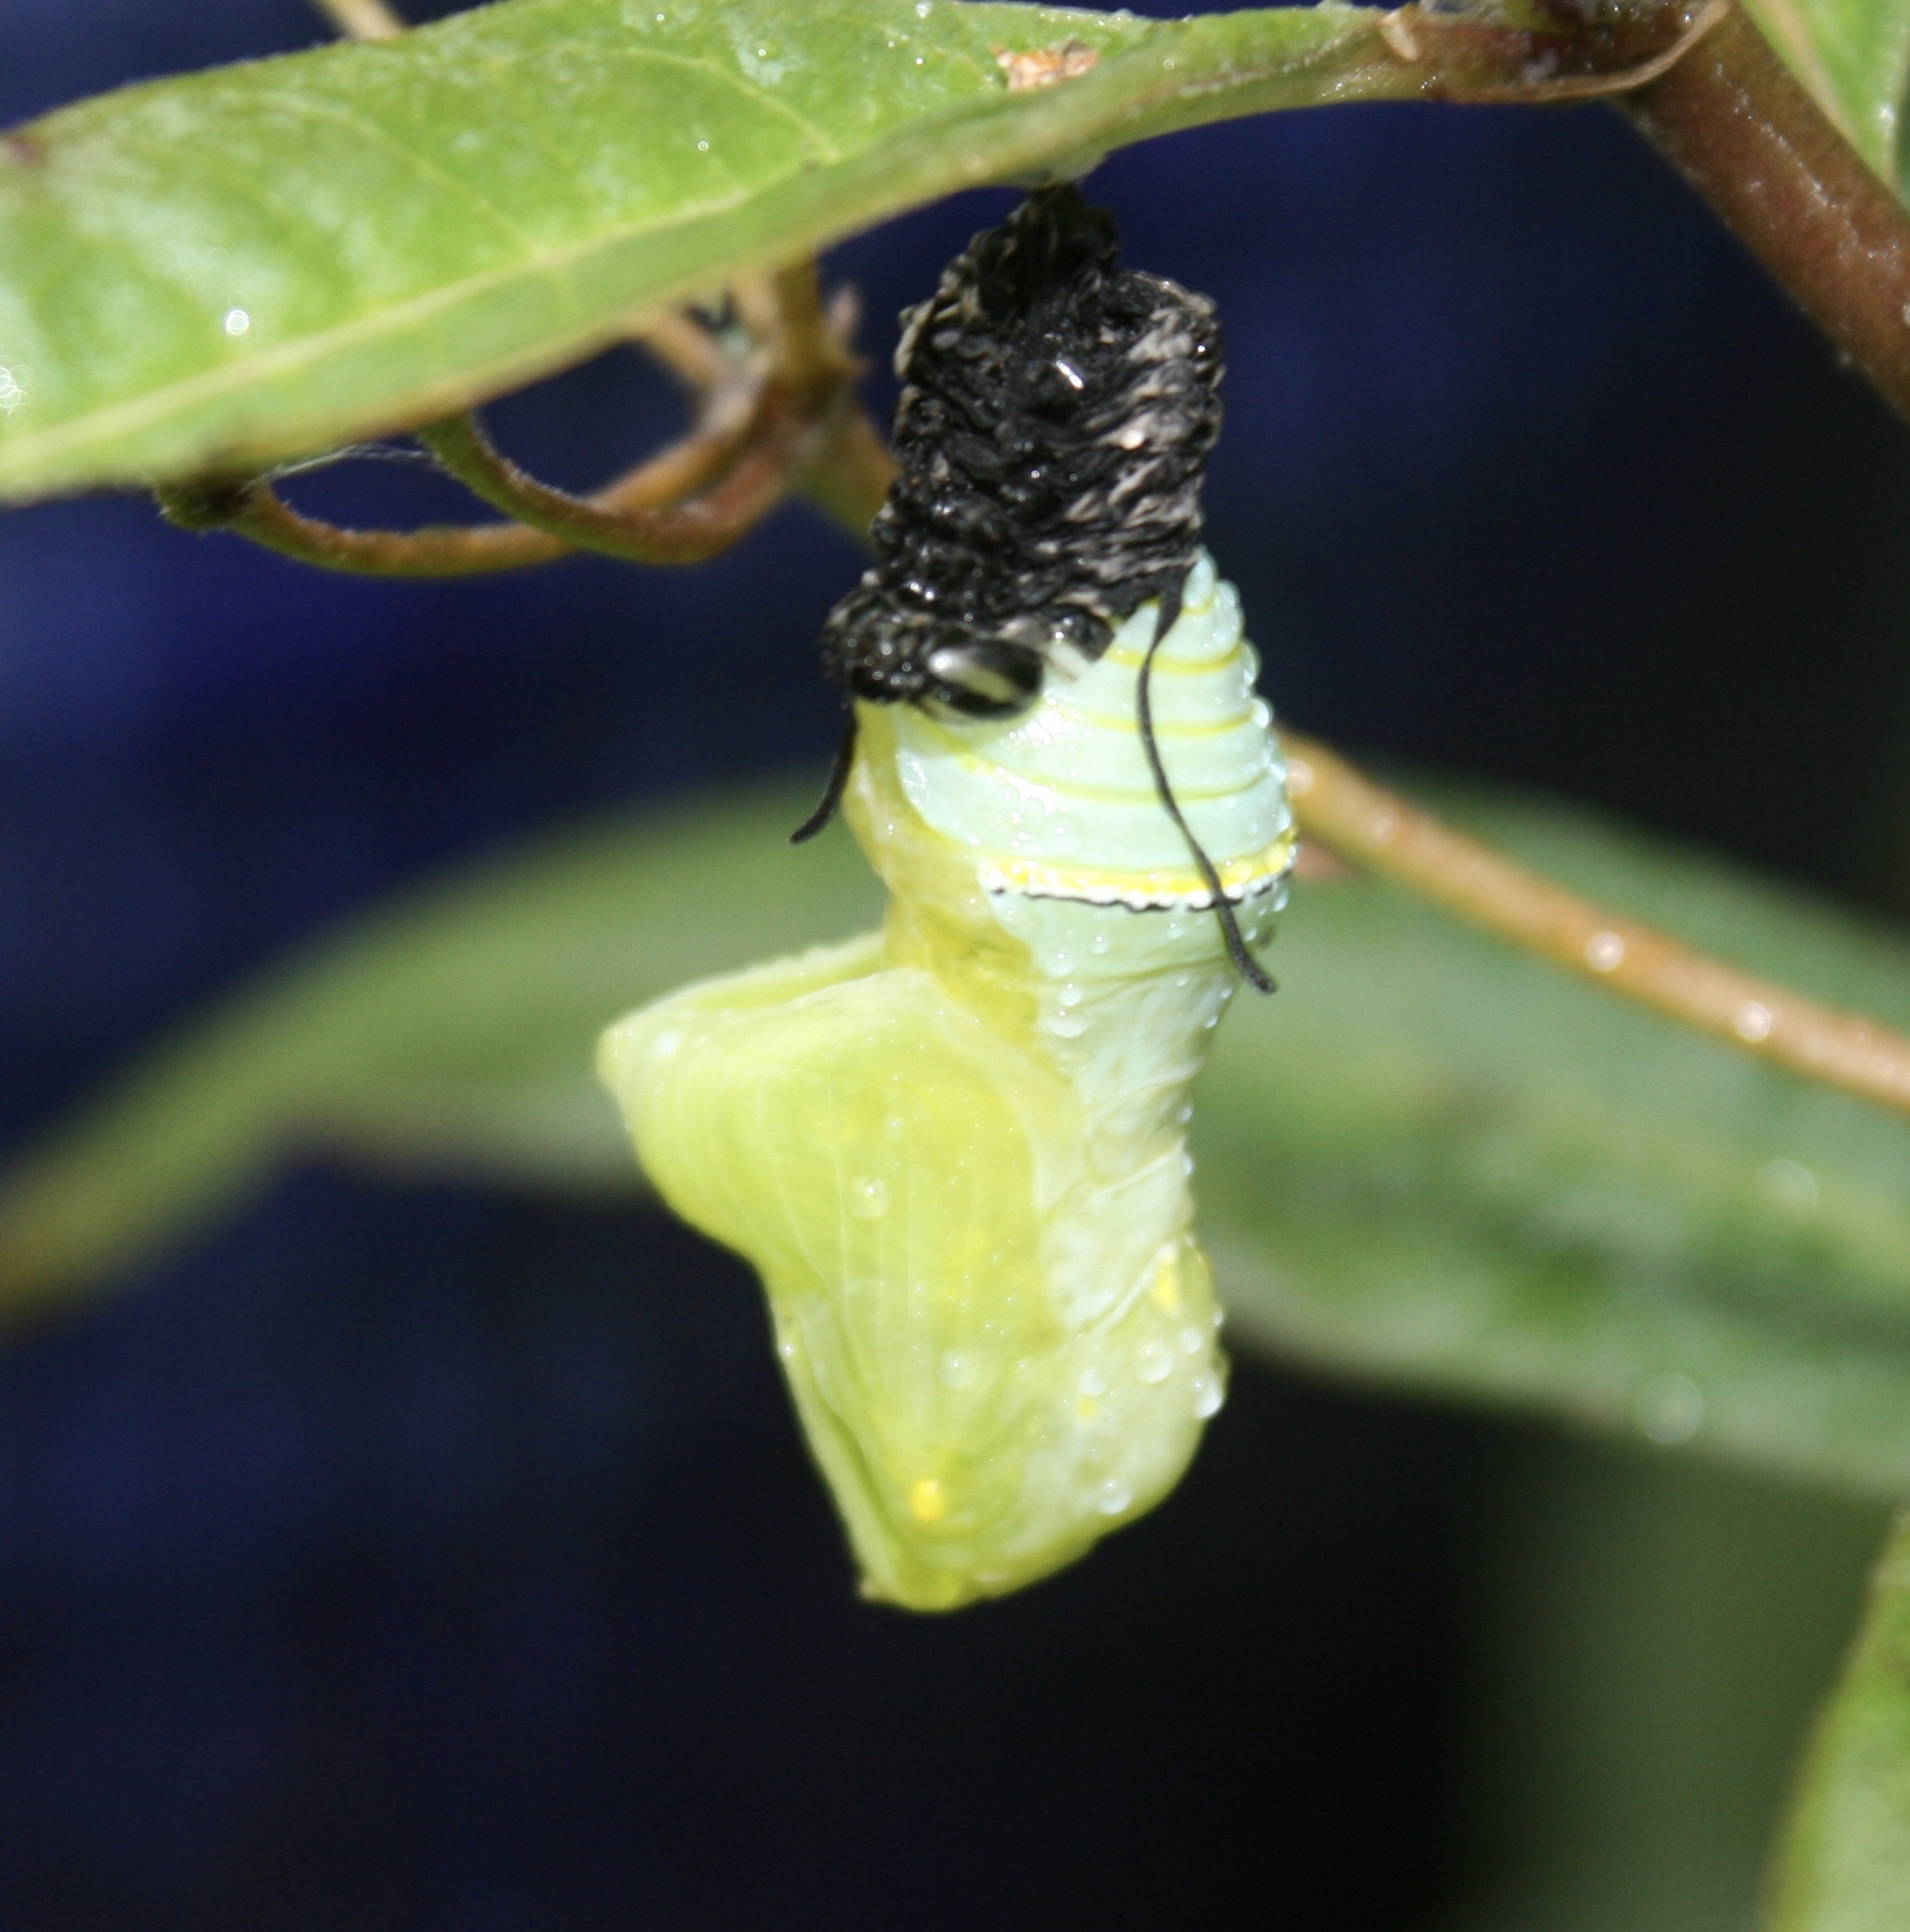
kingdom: Animalia
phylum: Arthropoda
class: Insecta
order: Lepidoptera
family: Nymphalidae
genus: Danaus
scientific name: Danaus plexippus
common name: Monarch
